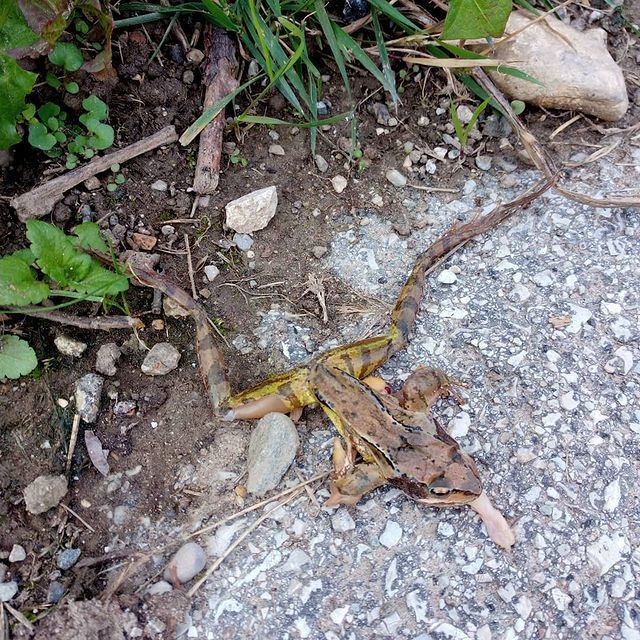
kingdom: Animalia
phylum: Chordata
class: Amphibia
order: Anura
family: Ranidae
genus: Rana
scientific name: Rana temporaria
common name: Common frog
